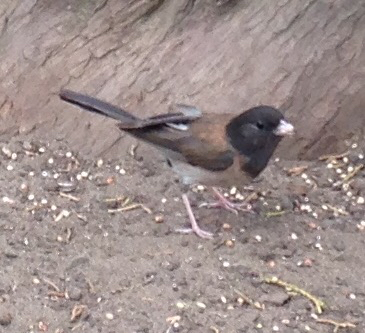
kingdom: Animalia
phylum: Chordata
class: Aves
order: Passeriformes
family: Passerellidae
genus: Junco
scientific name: Junco hyemalis
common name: Dark-eyed junco
